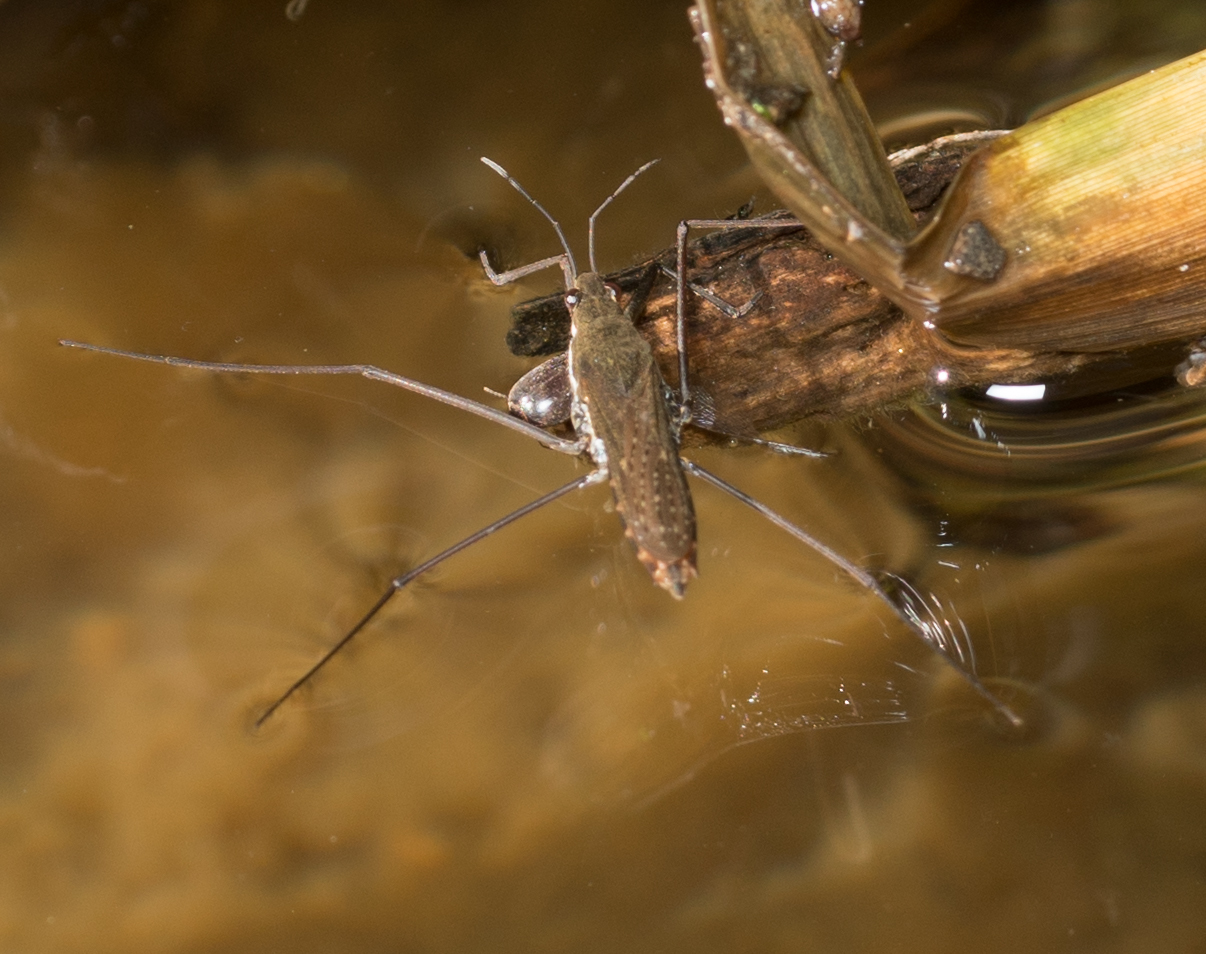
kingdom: Animalia
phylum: Arthropoda
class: Insecta
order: Hemiptera
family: Gerridae
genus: Aquarius
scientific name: Aquarius remigis
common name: Common water strider
